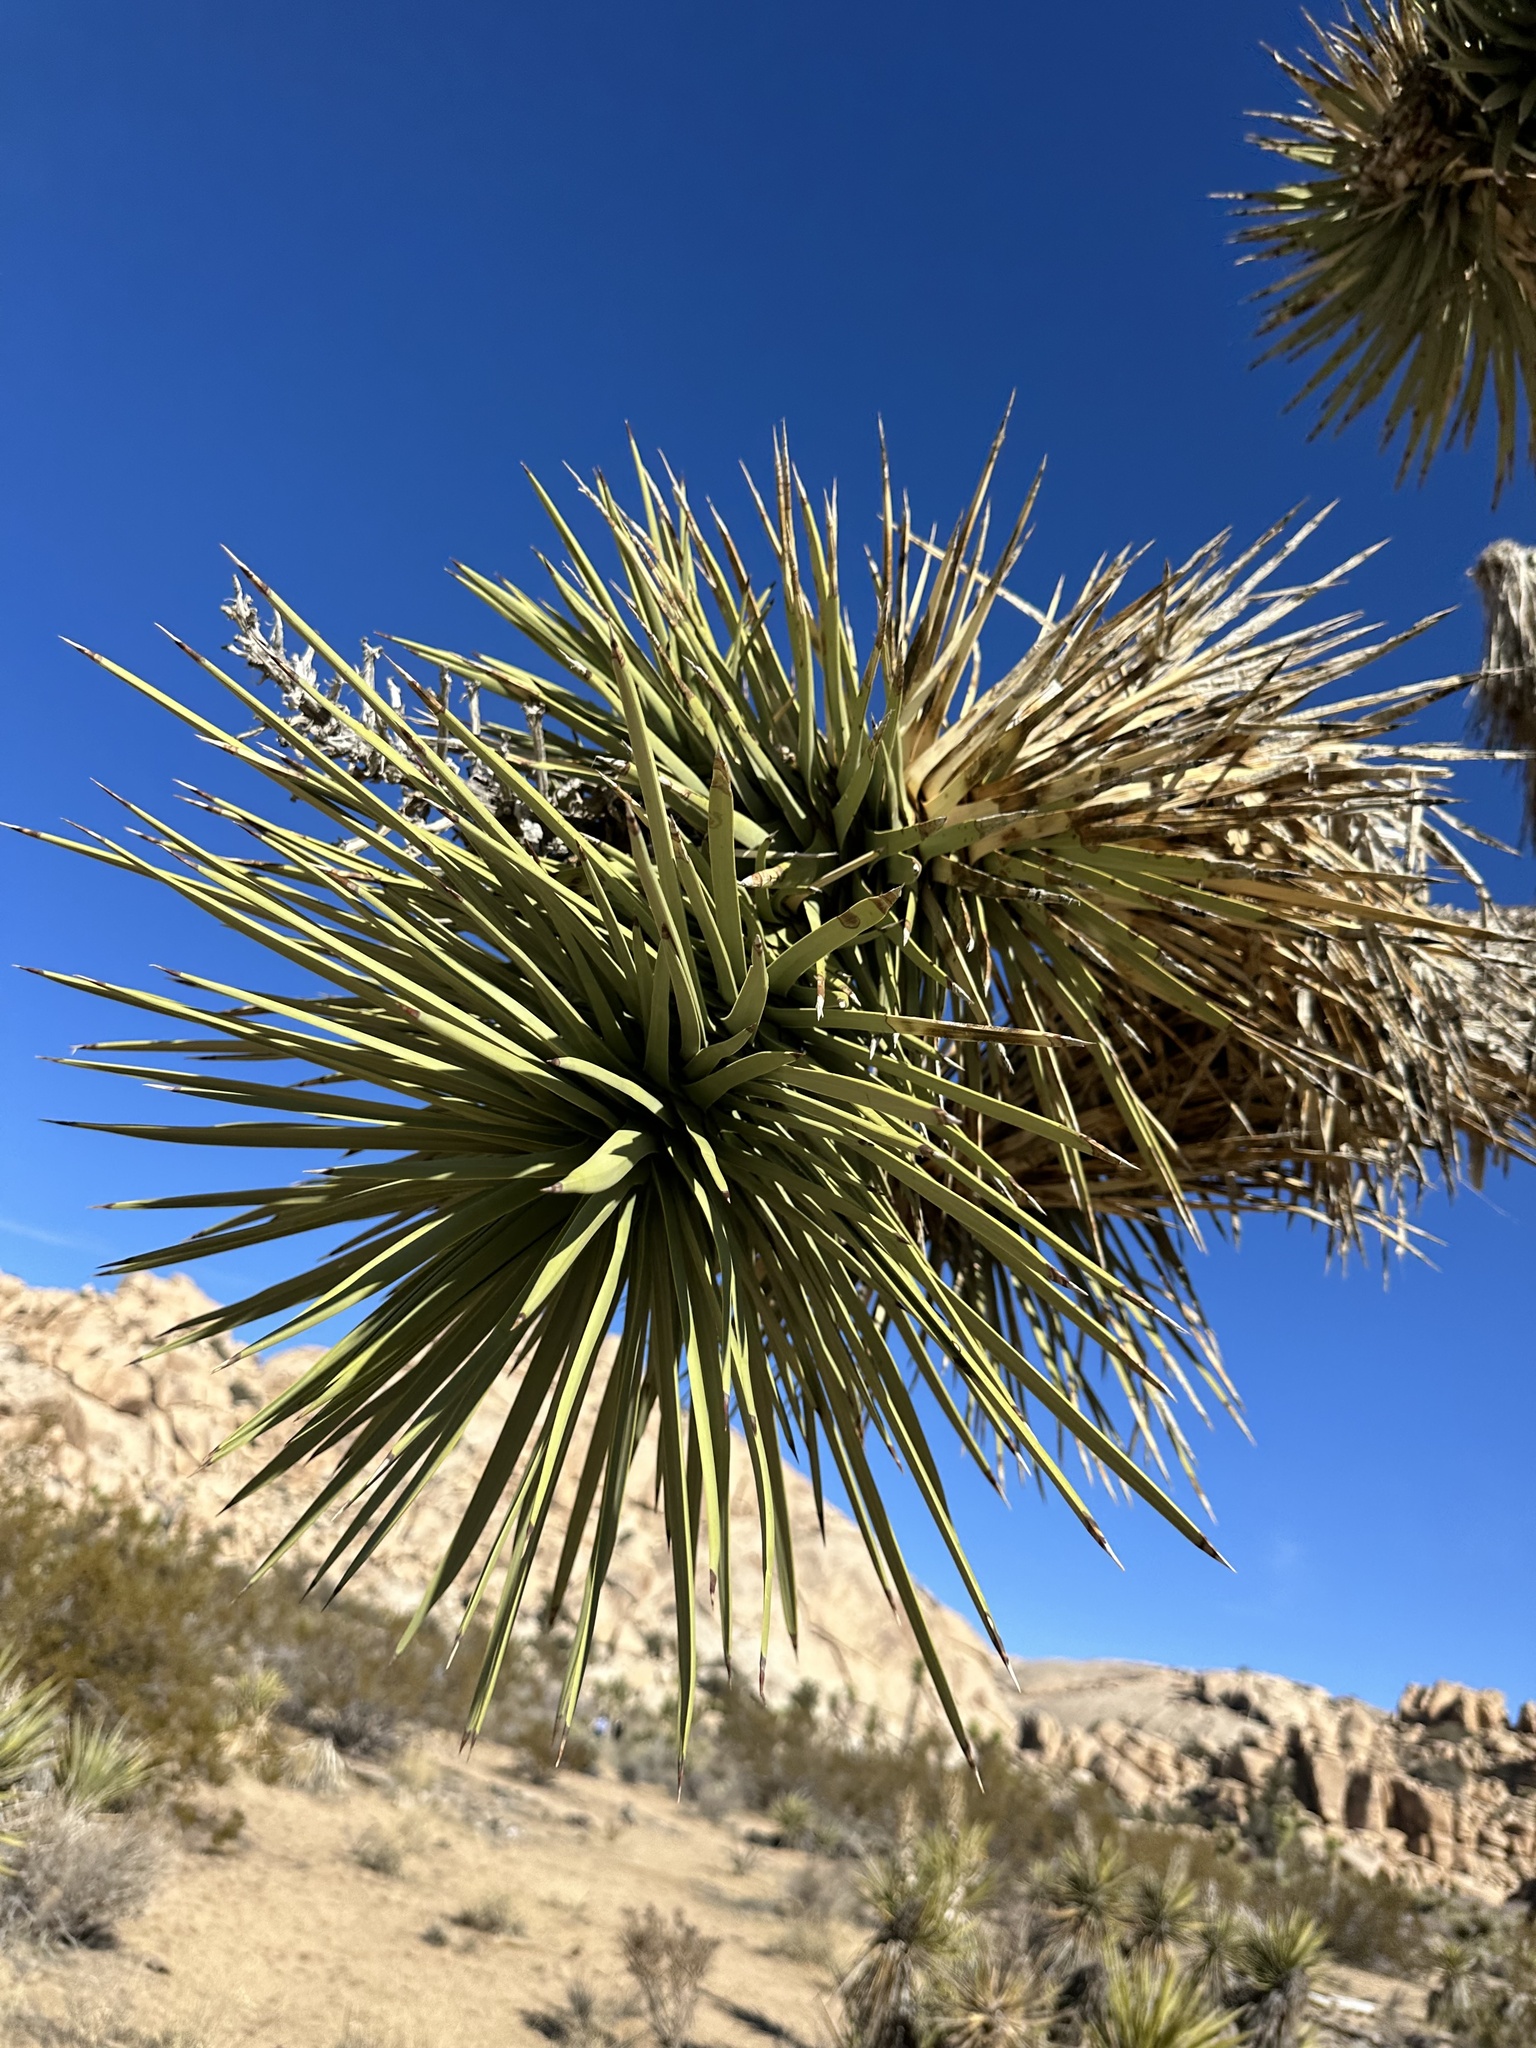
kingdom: Plantae
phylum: Tracheophyta
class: Liliopsida
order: Asparagales
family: Asparagaceae
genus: Yucca
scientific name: Yucca brevifolia
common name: Joshua tree
